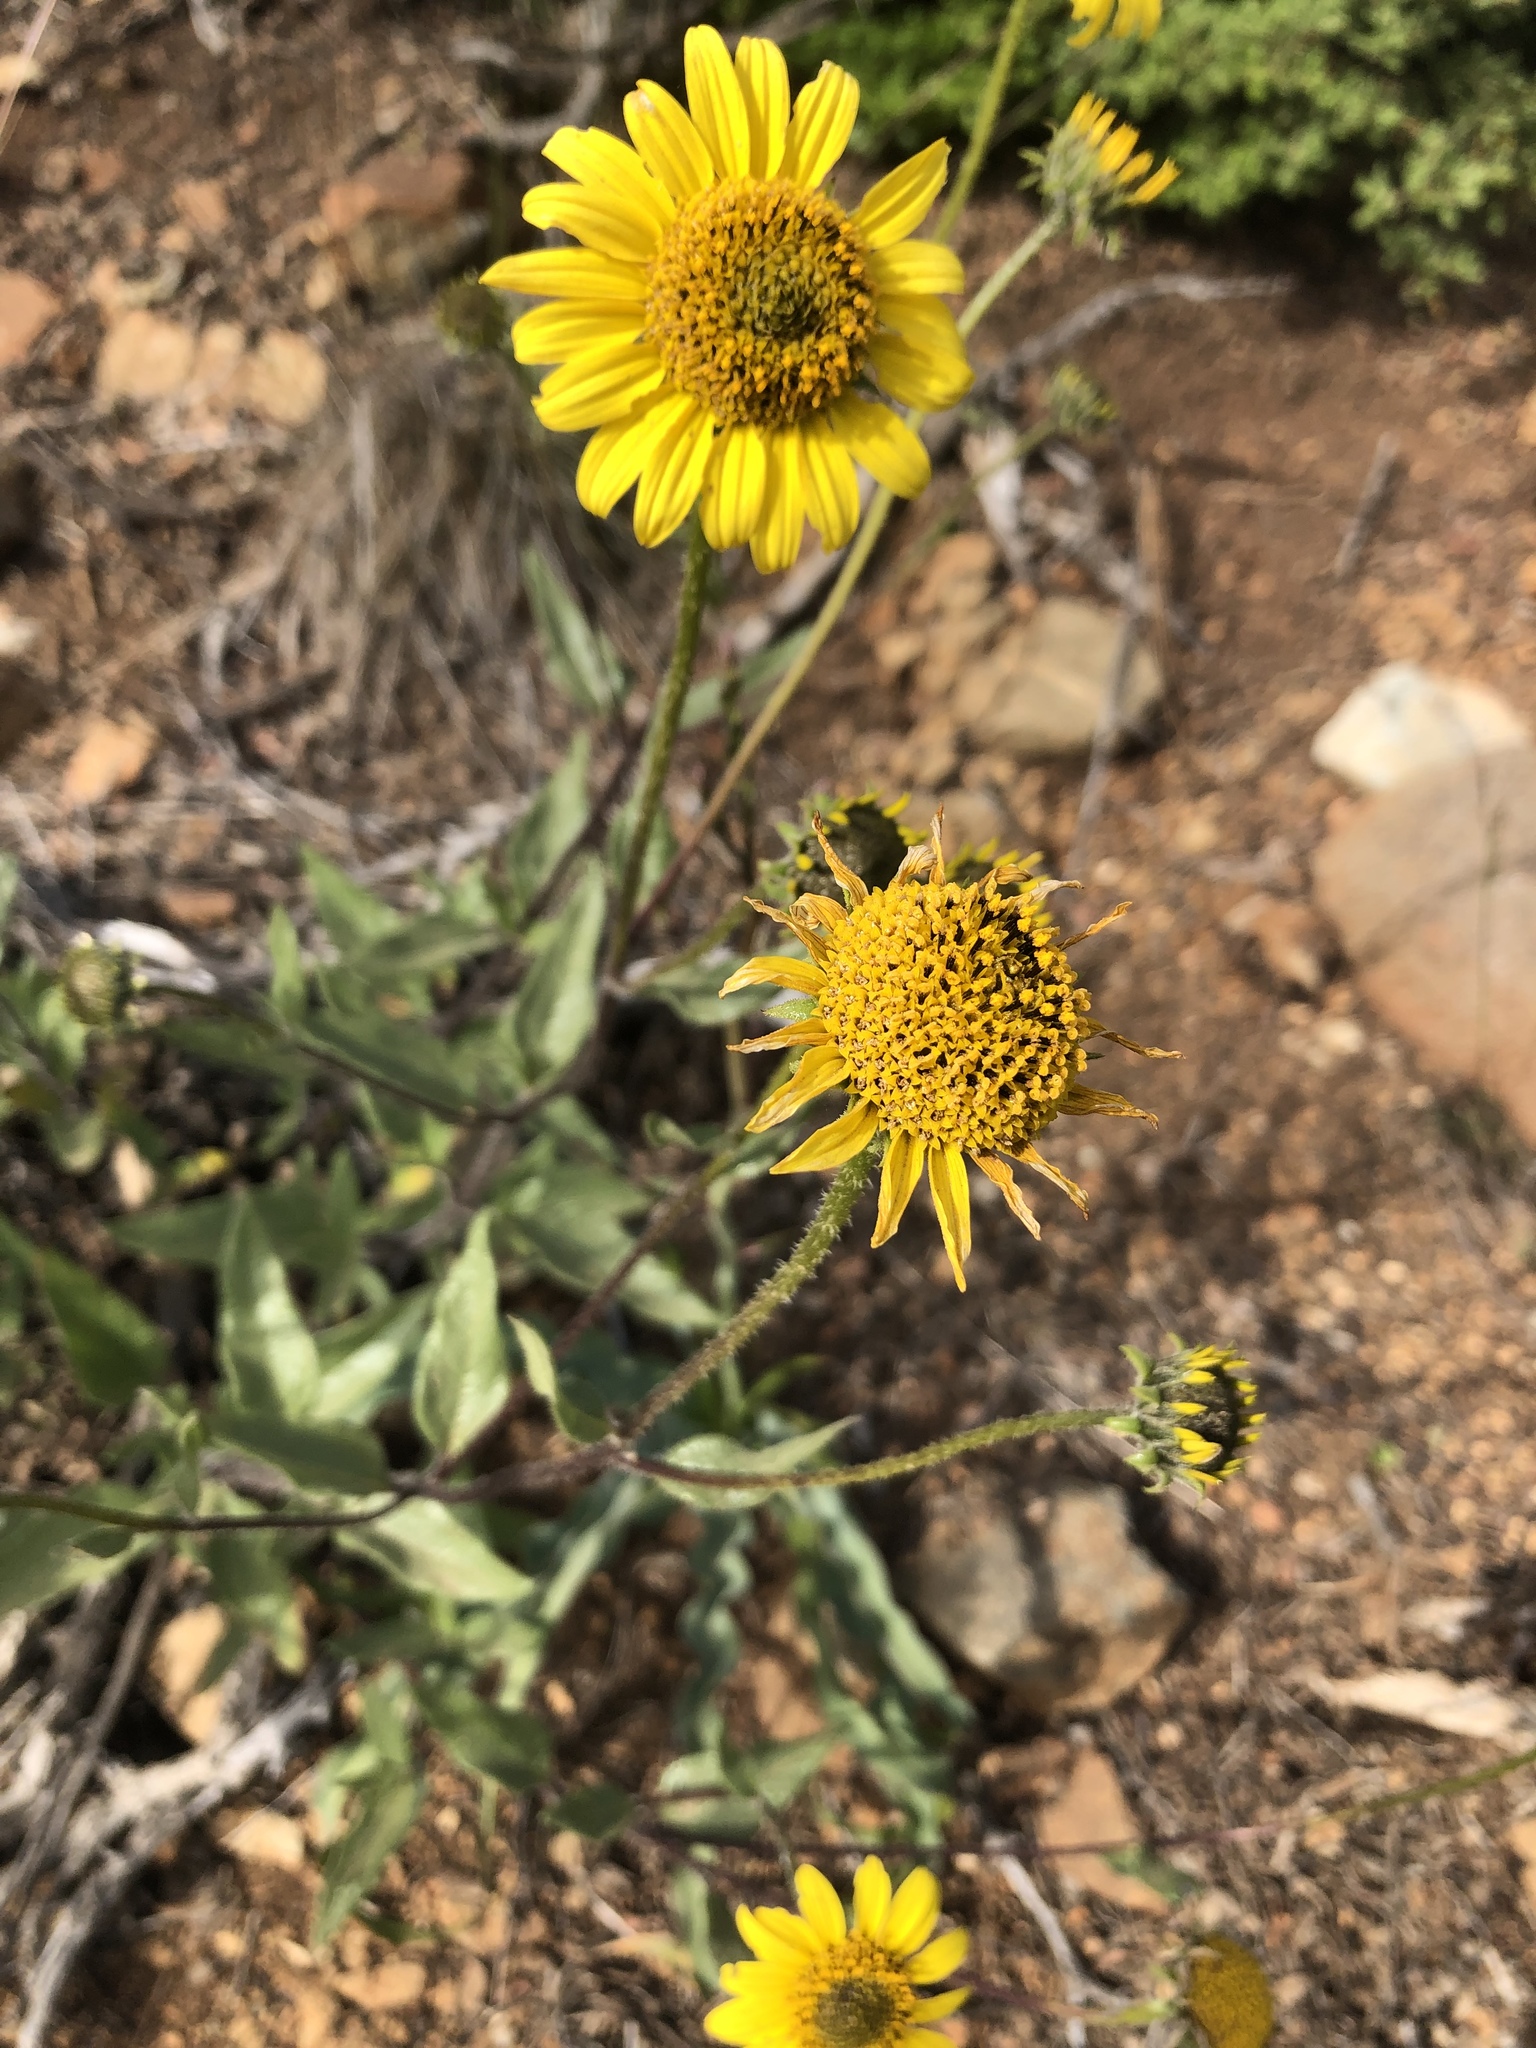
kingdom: Plantae
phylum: Tracheophyta
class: Magnoliopsida
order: Asterales
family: Asteraceae
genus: Helianthus
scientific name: Helianthus gracilentus
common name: Slender sunflower
